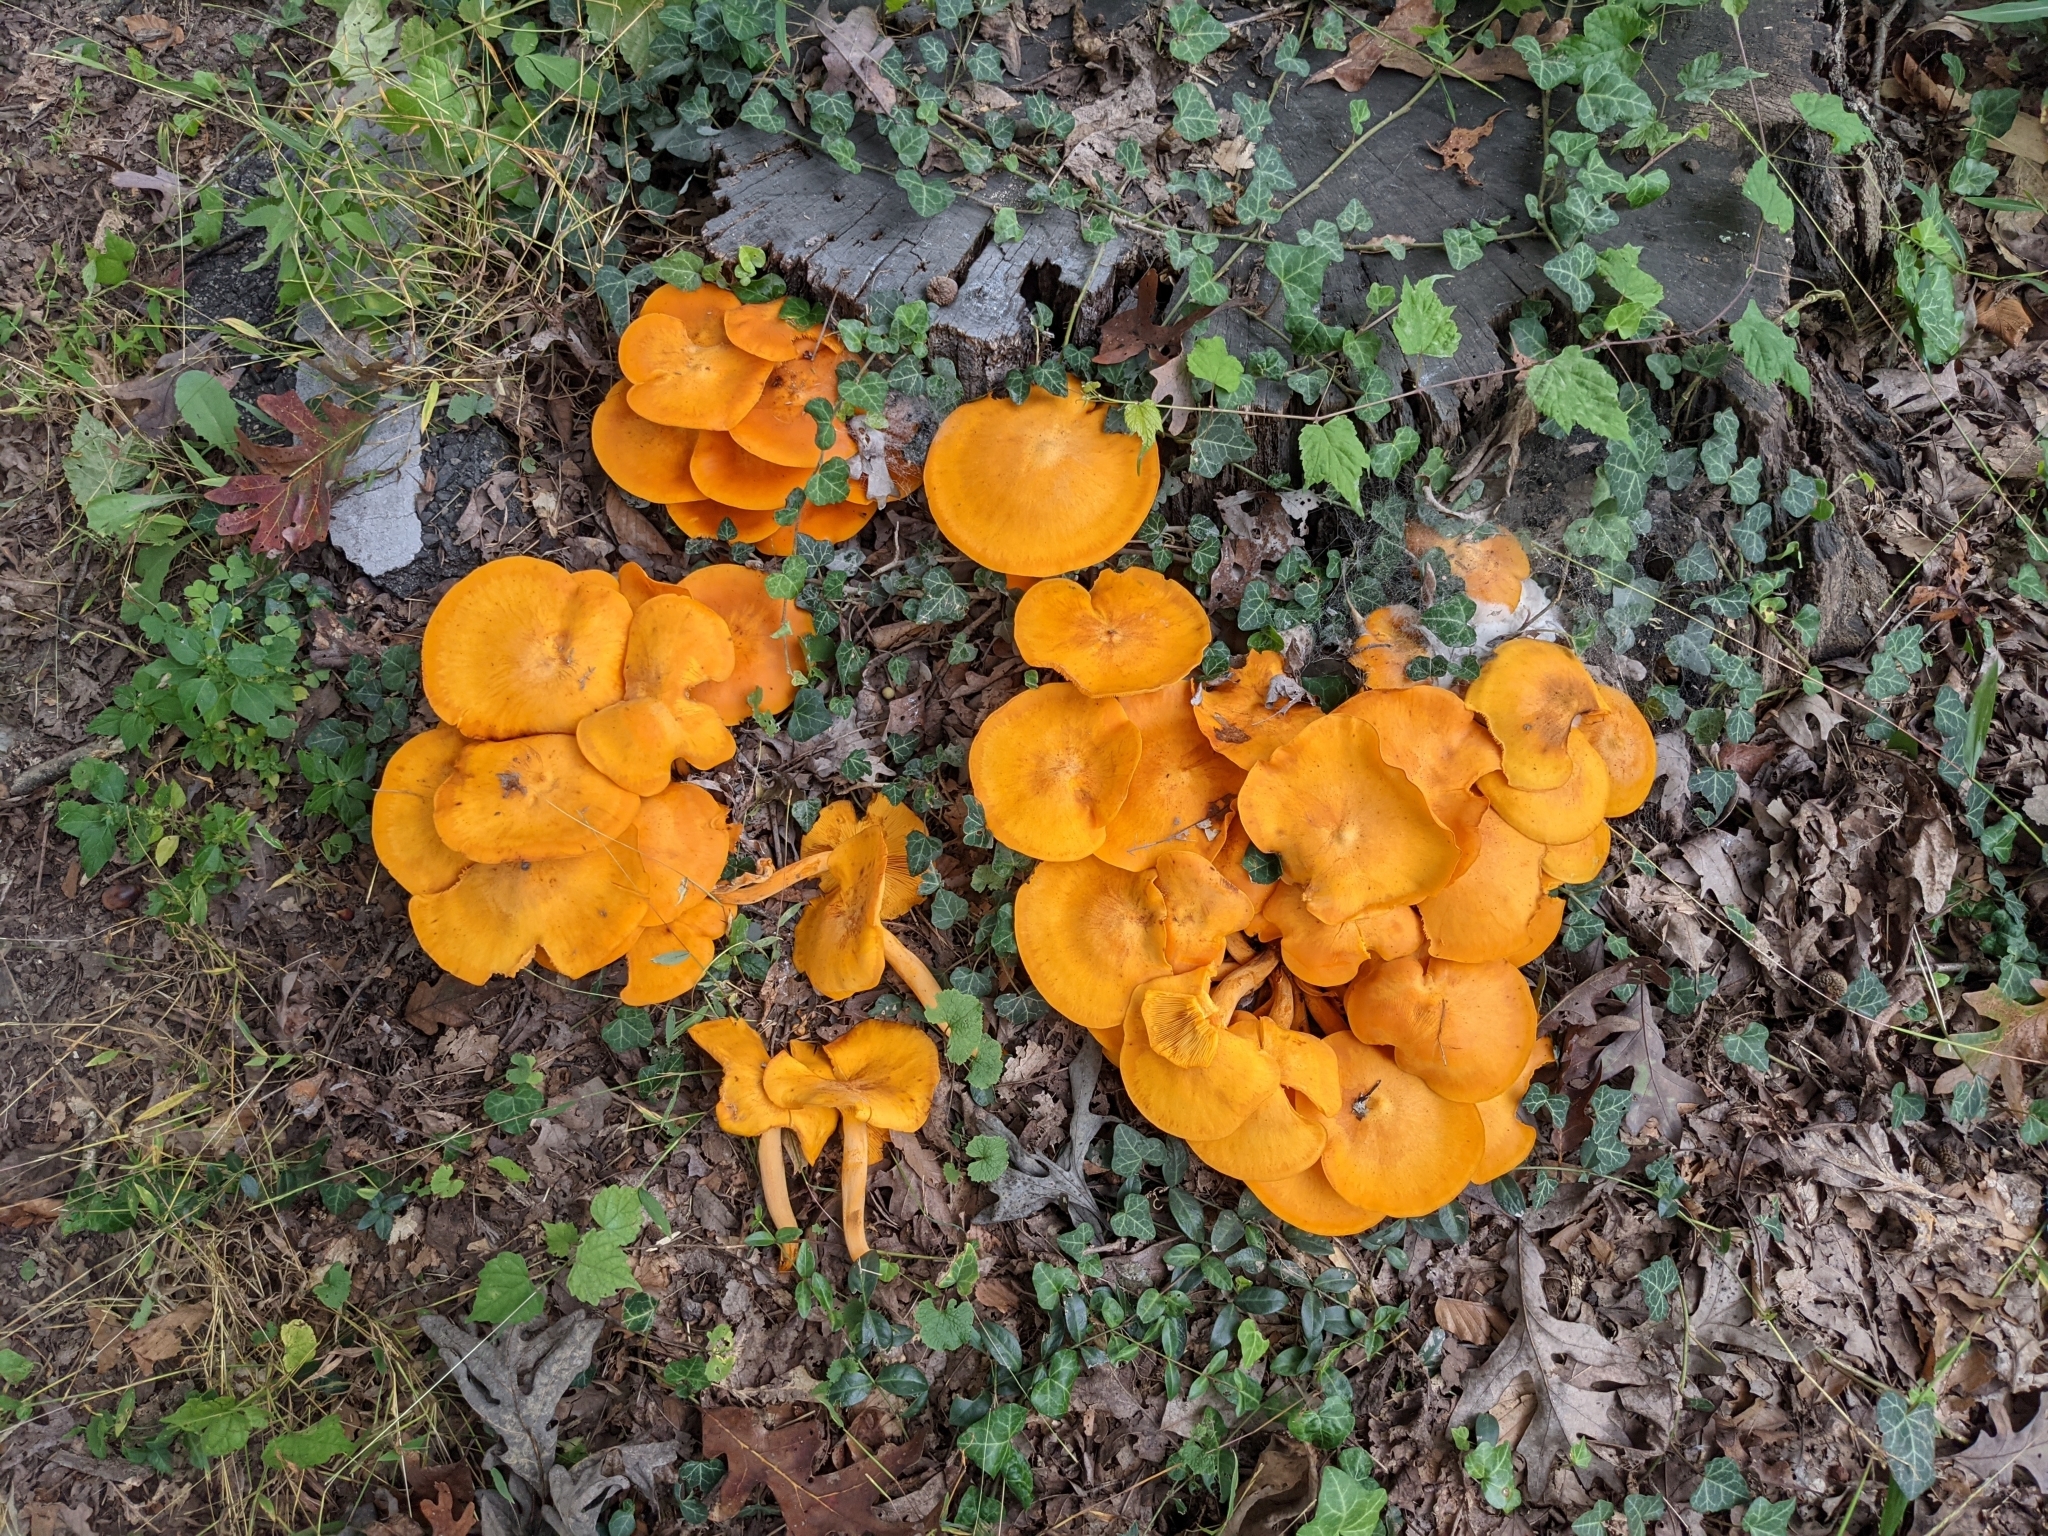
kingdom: Fungi
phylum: Basidiomycota
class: Agaricomycetes
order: Agaricales
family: Omphalotaceae
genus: Omphalotus
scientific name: Omphalotus illudens
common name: Jack o lantern
